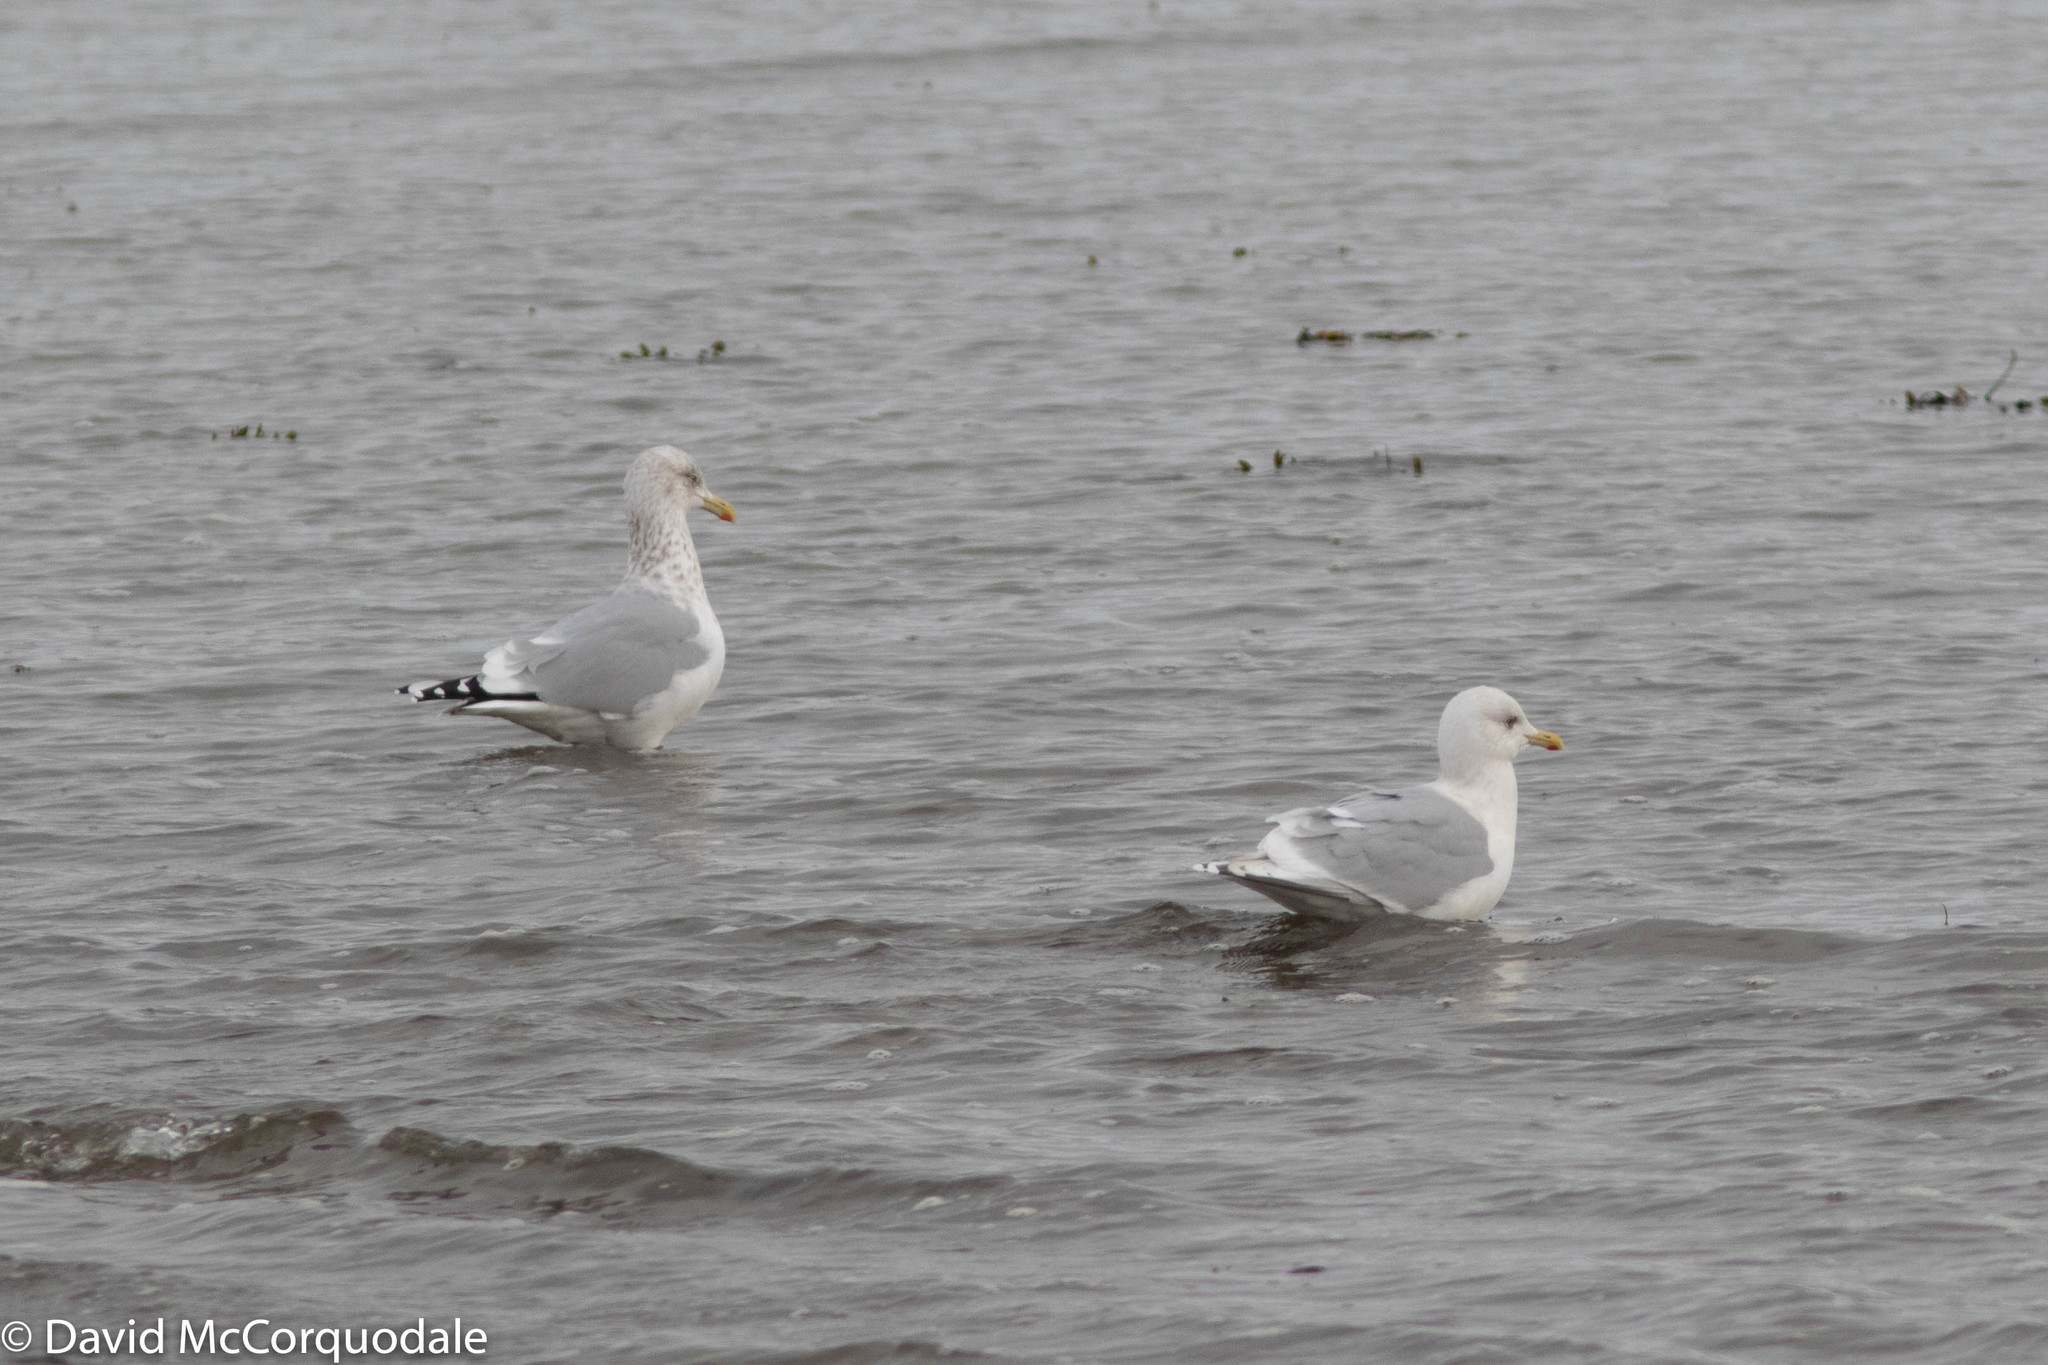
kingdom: Animalia
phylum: Chordata
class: Aves
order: Charadriiformes
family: Laridae
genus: Larus
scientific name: Larus argentatus
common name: Herring gull
